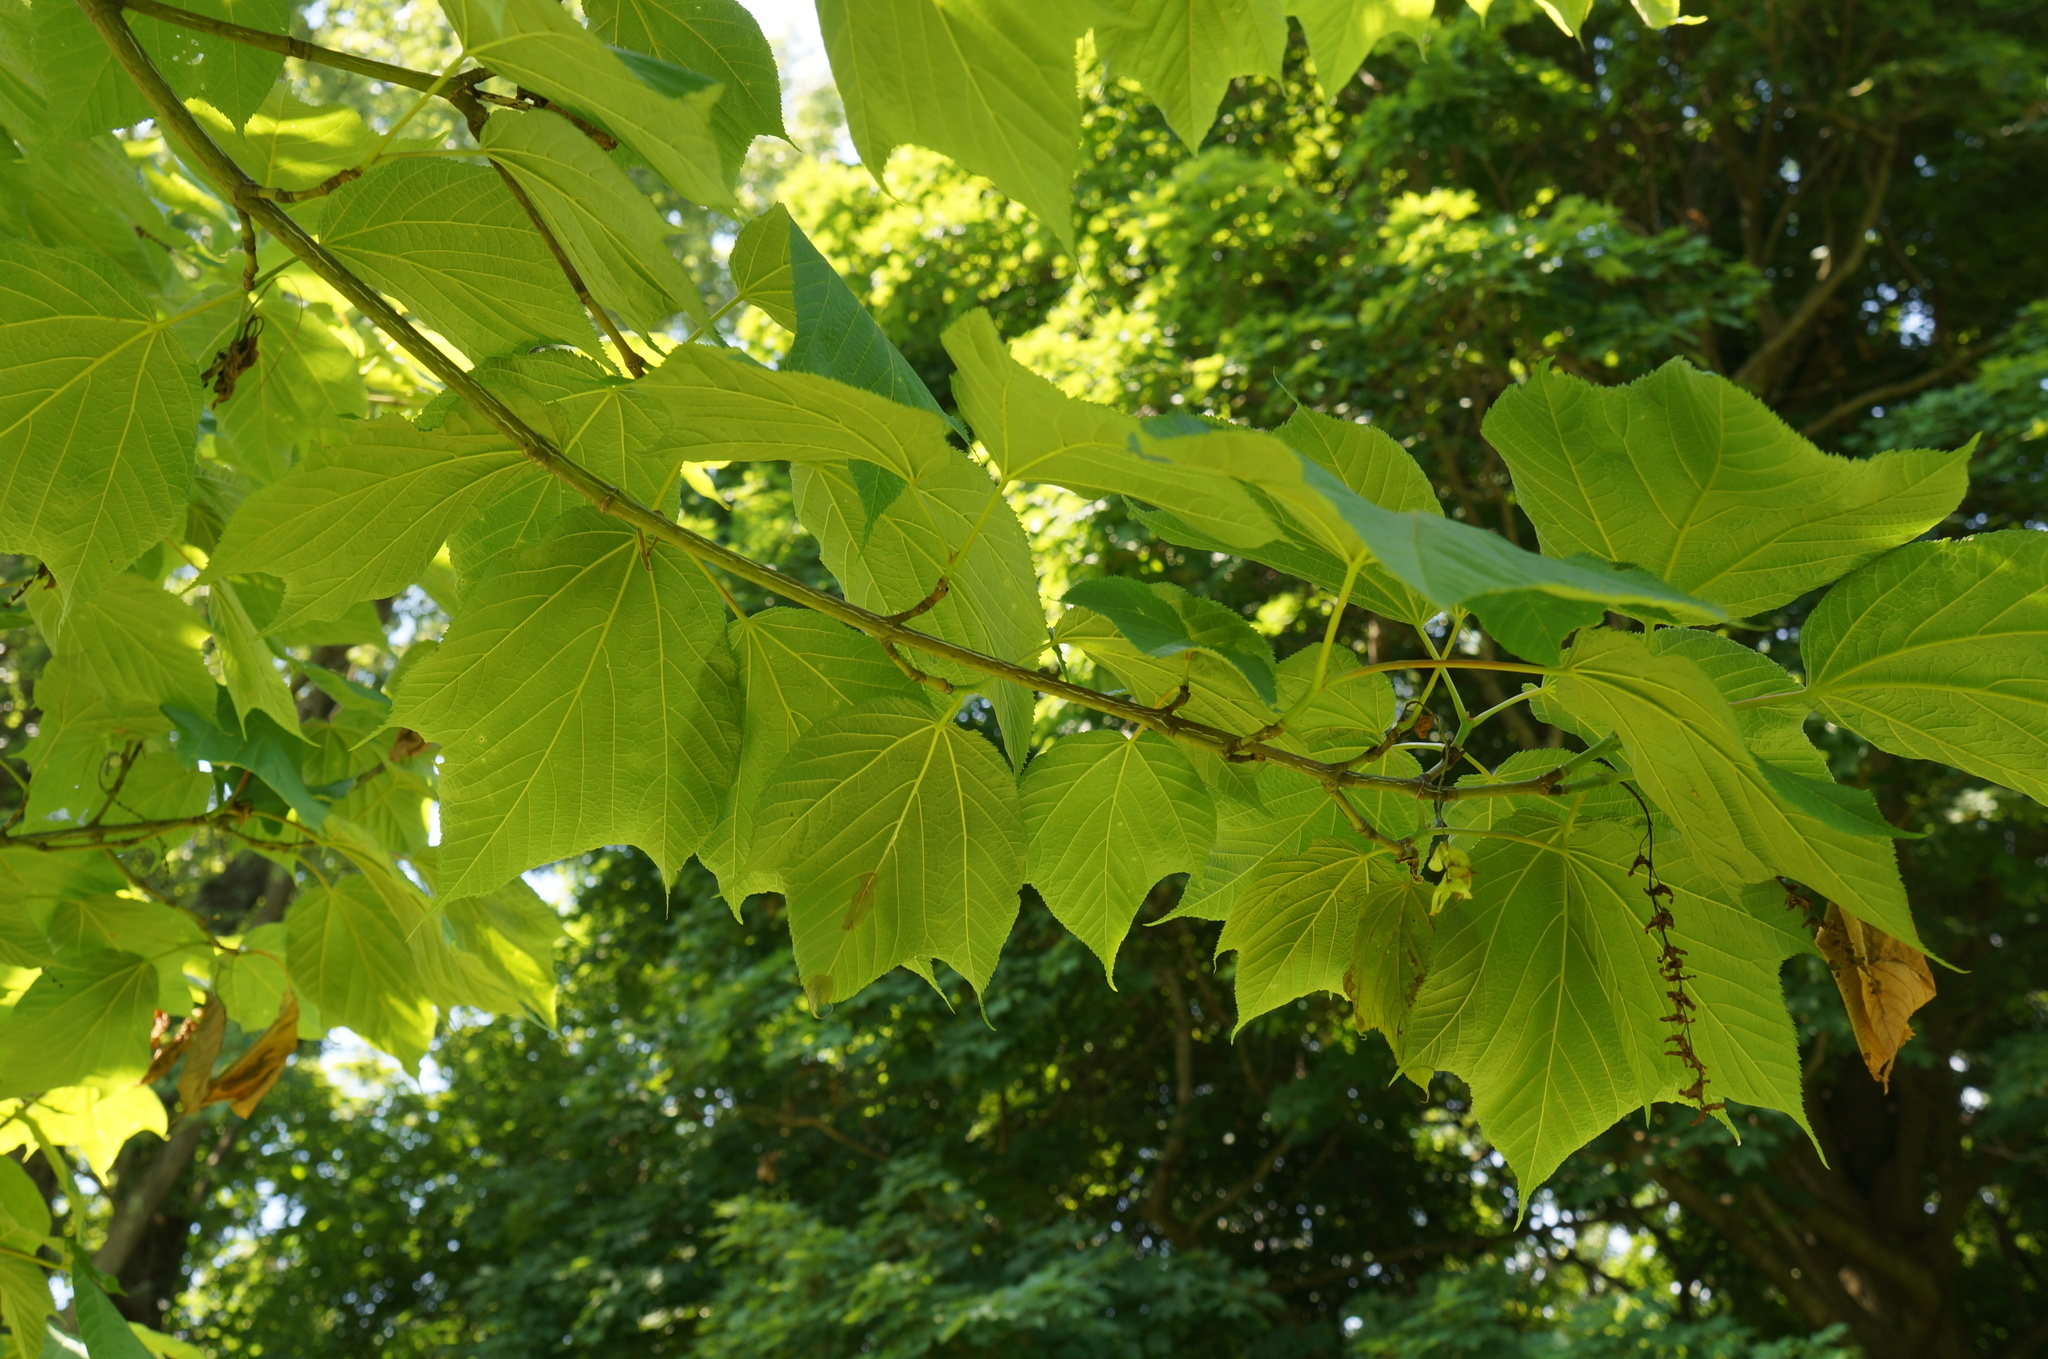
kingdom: Plantae
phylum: Tracheophyta
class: Magnoliopsida
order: Sapindales
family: Sapindaceae
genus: Acer
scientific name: Acer pensylvanicum
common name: Moosewood
